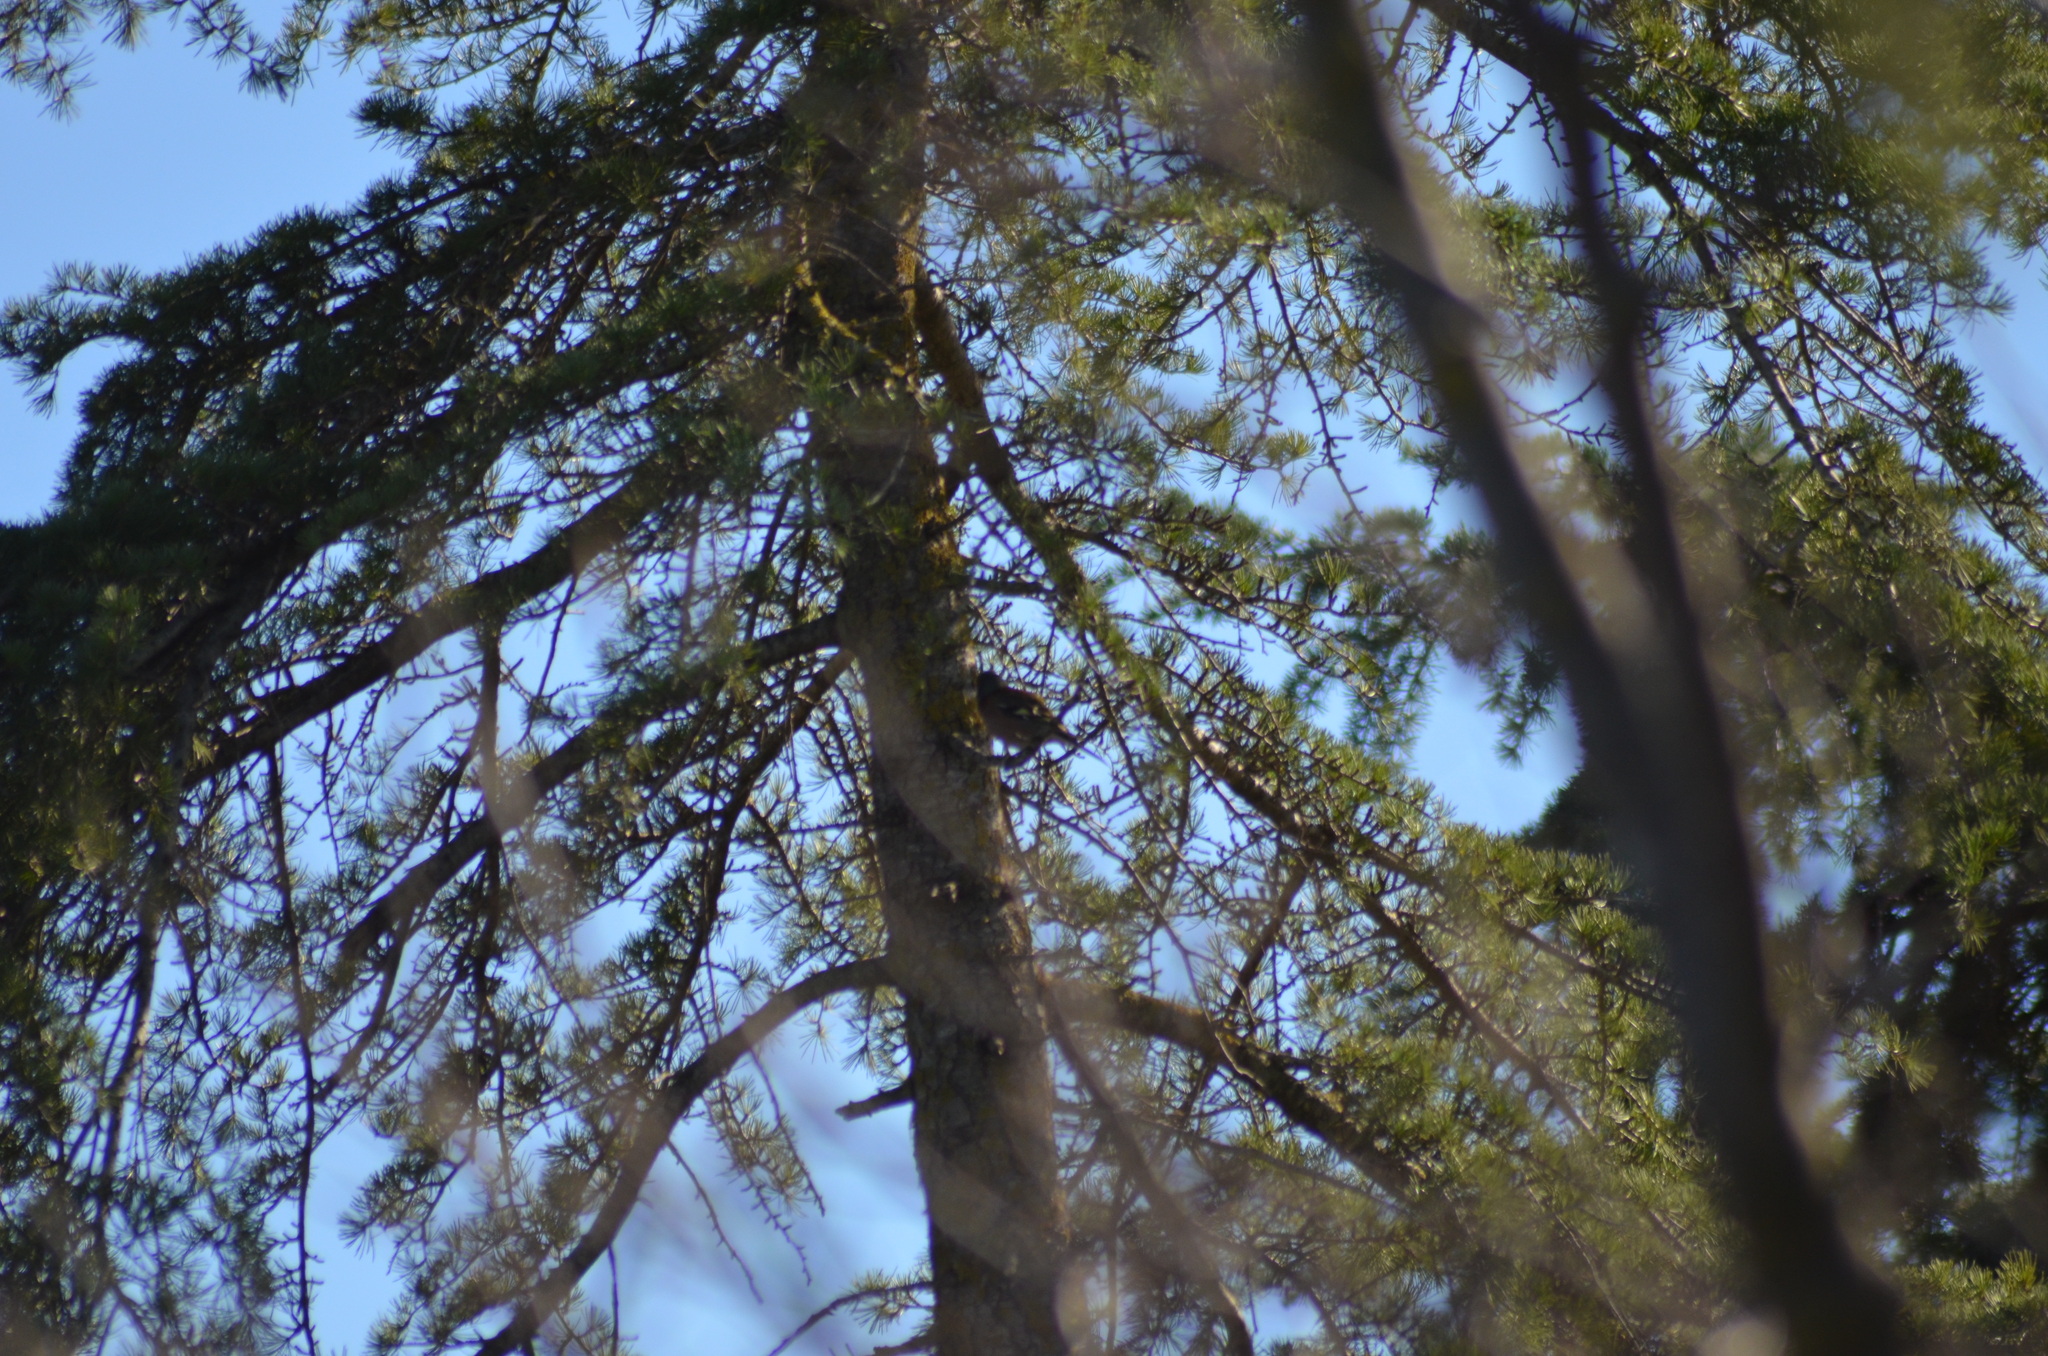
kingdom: Animalia
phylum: Chordata
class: Aves
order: Passeriformes
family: Fringillidae
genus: Fringilla
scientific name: Fringilla coelebs
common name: Common chaffinch
